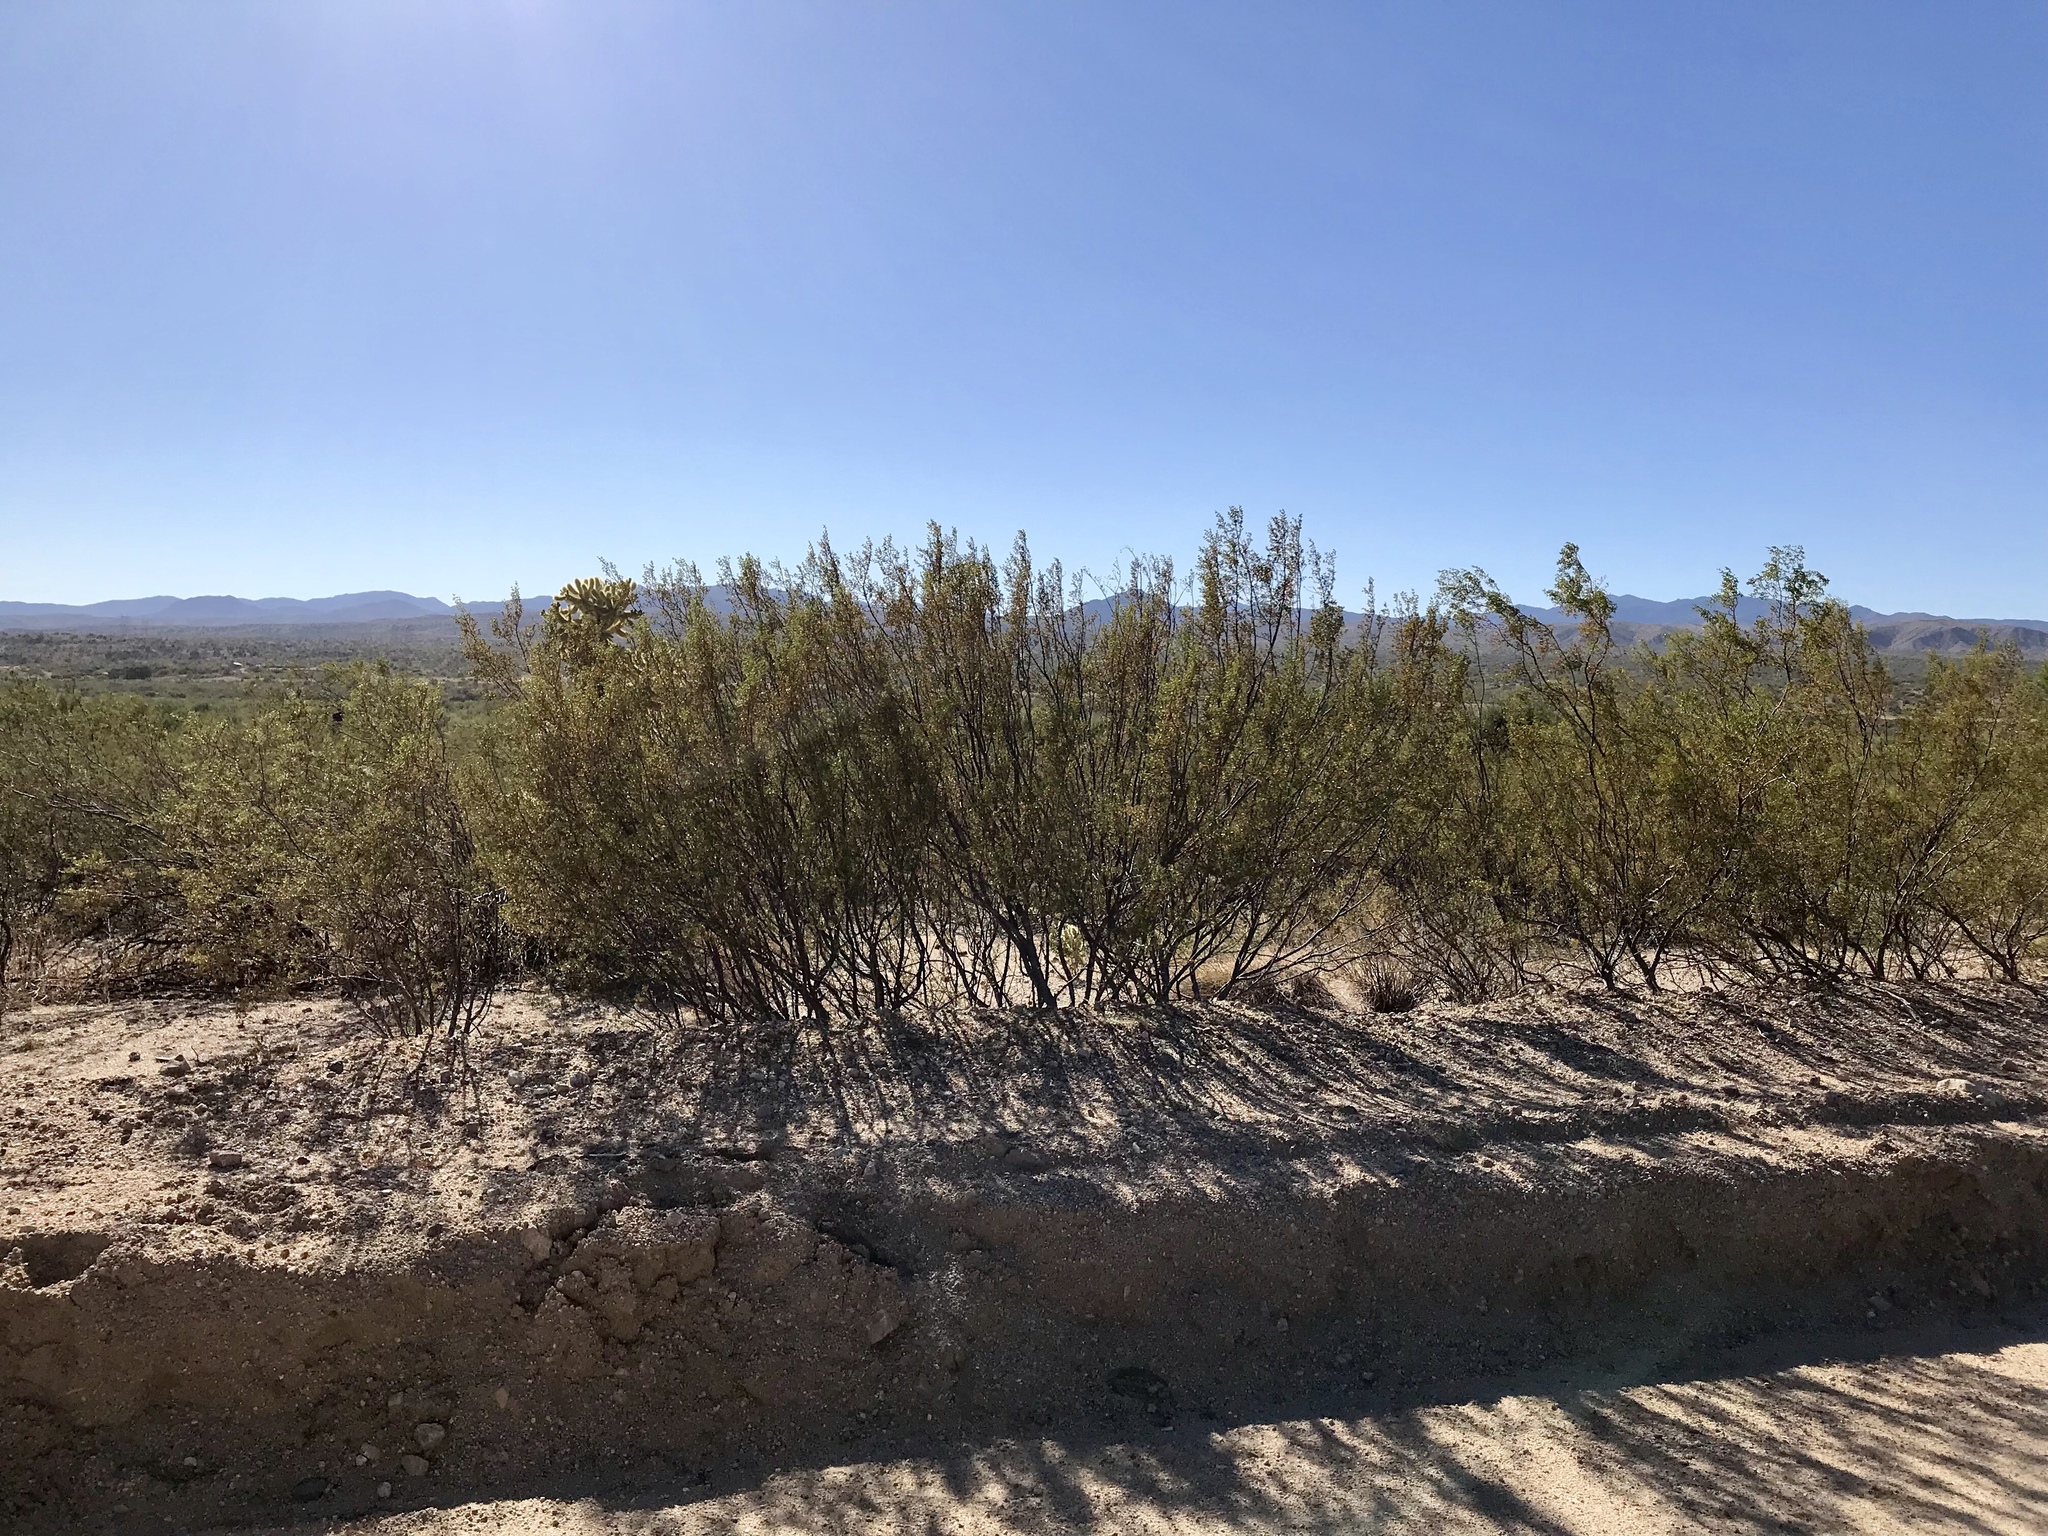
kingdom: Plantae
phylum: Tracheophyta
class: Magnoliopsida
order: Zygophyllales
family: Zygophyllaceae
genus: Larrea
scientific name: Larrea tridentata
